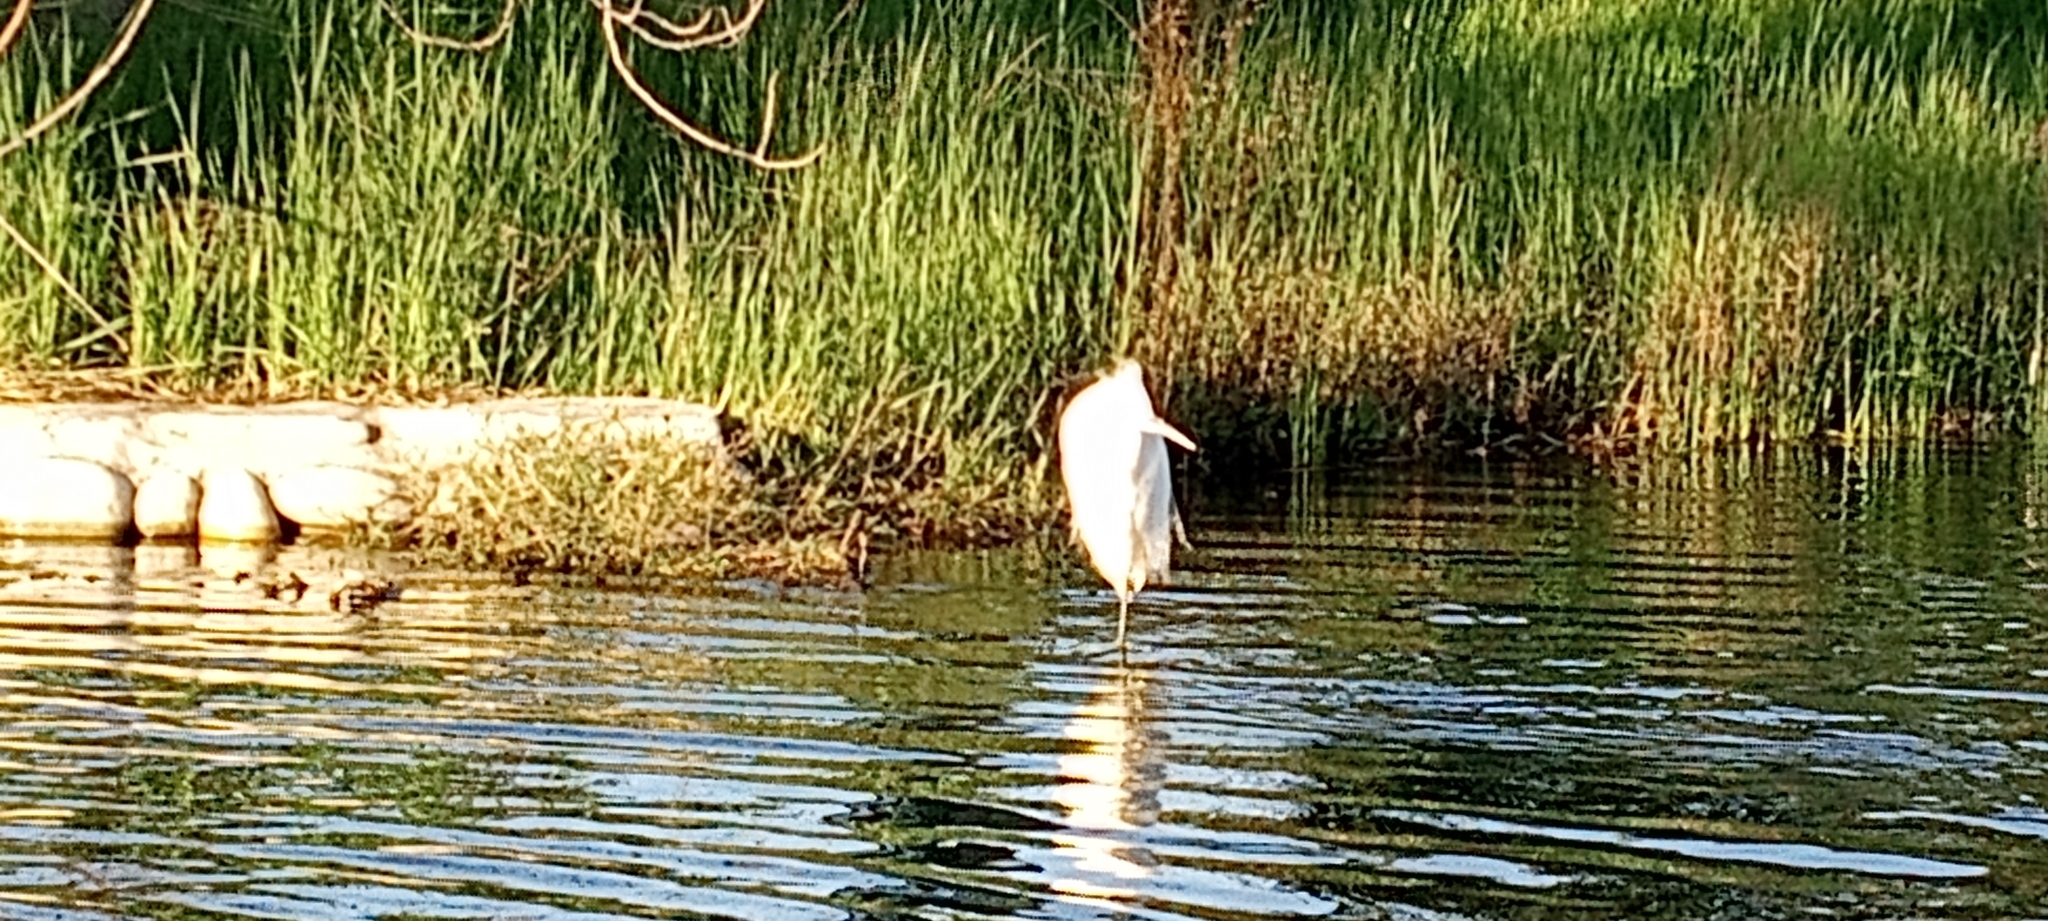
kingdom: Animalia
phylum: Chordata
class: Aves
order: Pelecaniformes
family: Ardeidae
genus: Egretta
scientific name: Egretta thula
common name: Snowy egret
